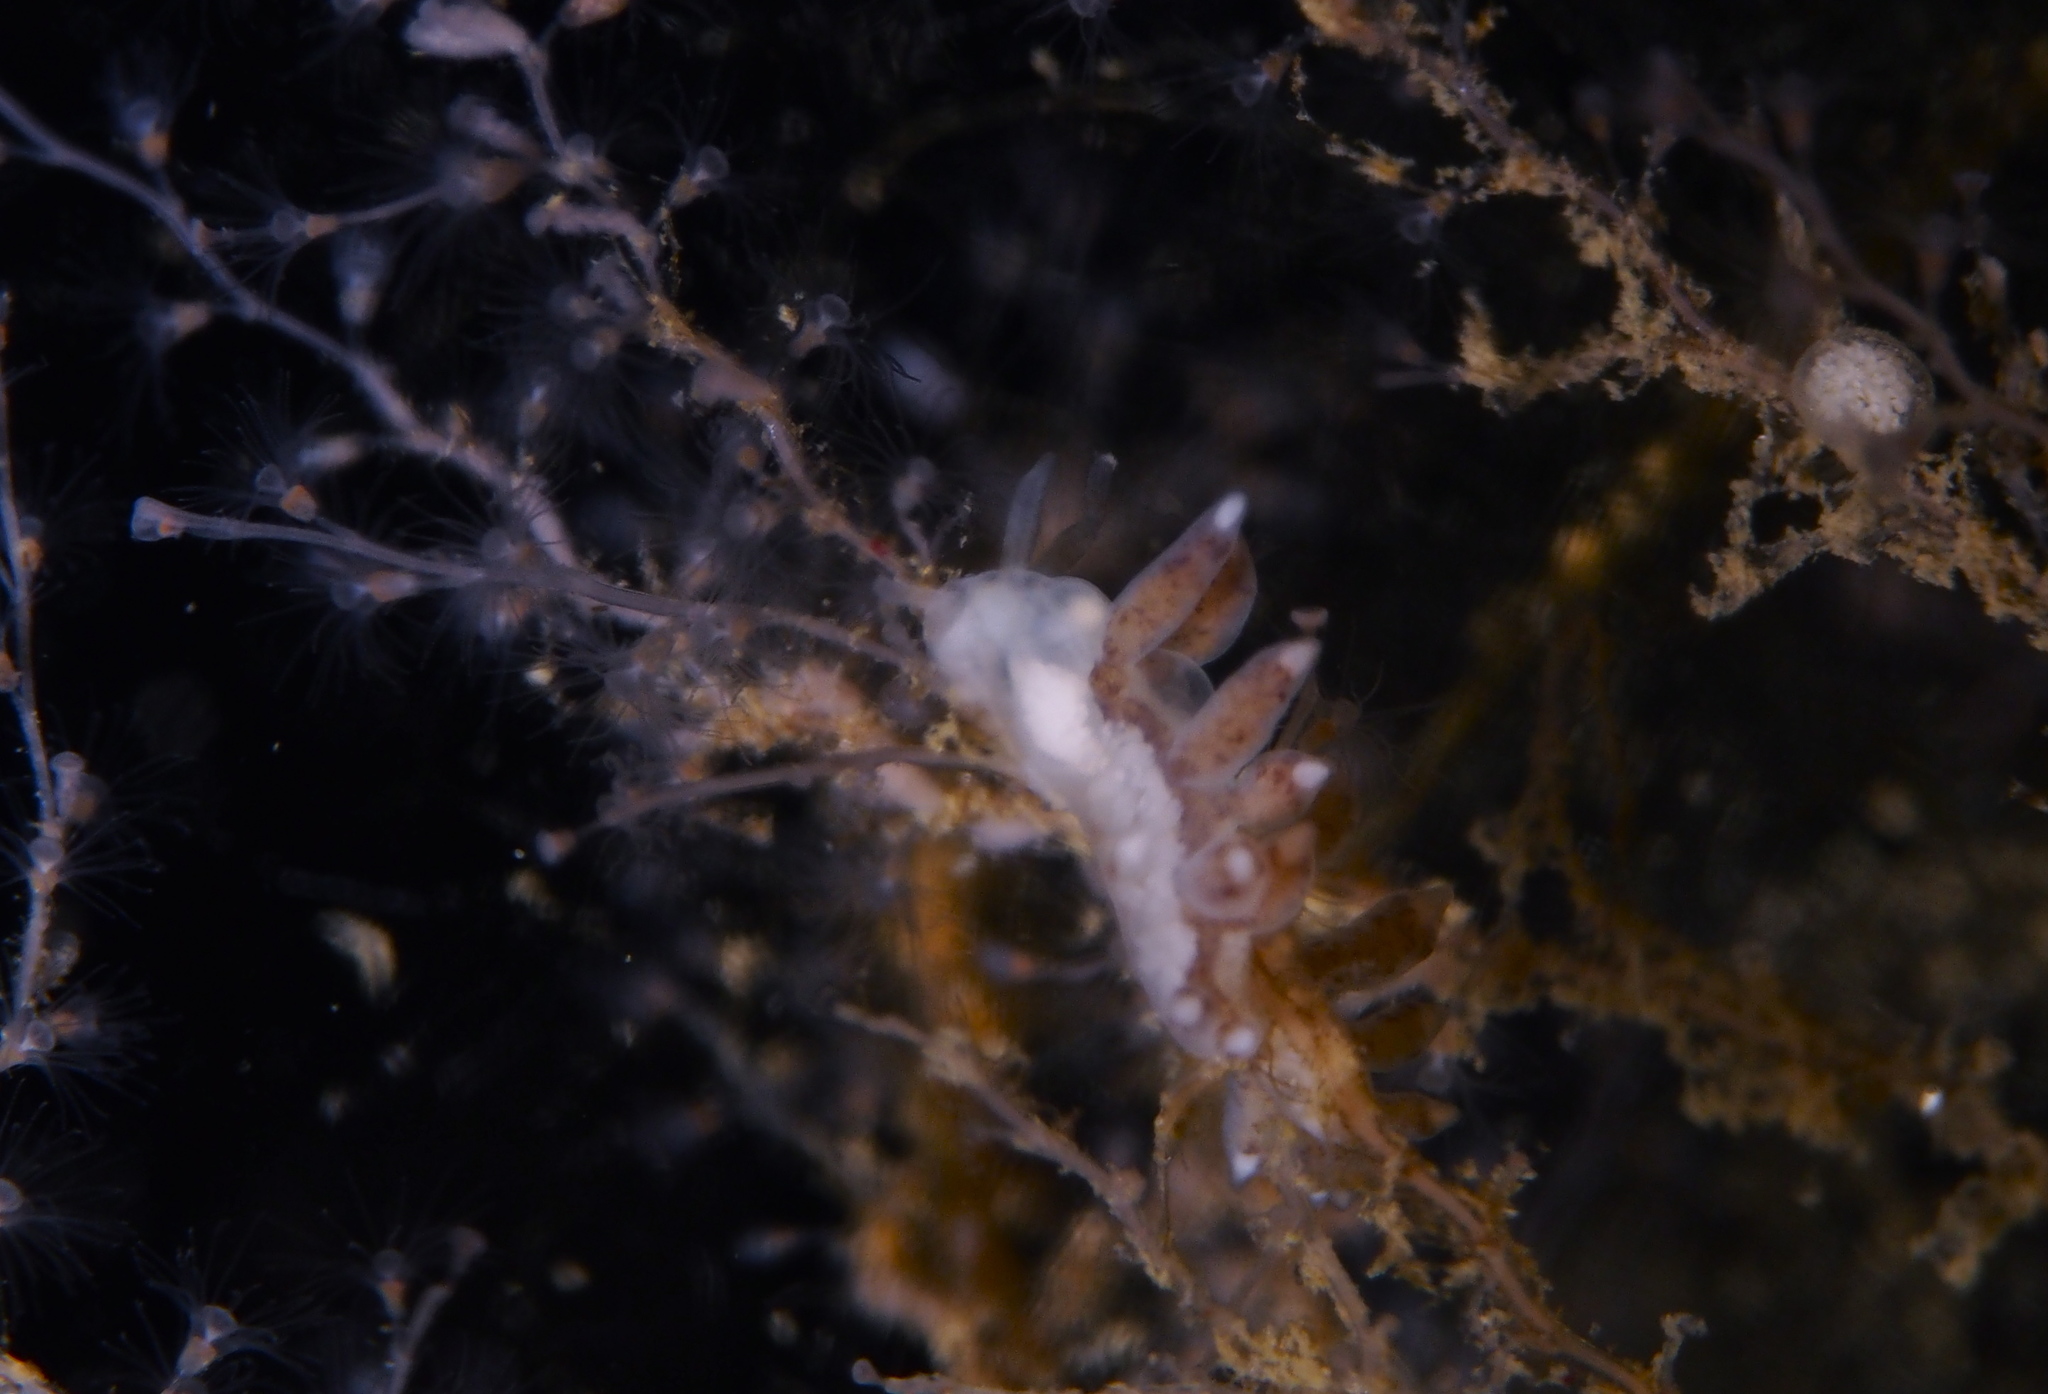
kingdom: Animalia
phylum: Mollusca
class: Gastropoda
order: Nudibranchia
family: Tergipedidae
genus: Tergipes
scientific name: Tergipes tergipes
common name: Johnston's balloon eolis
